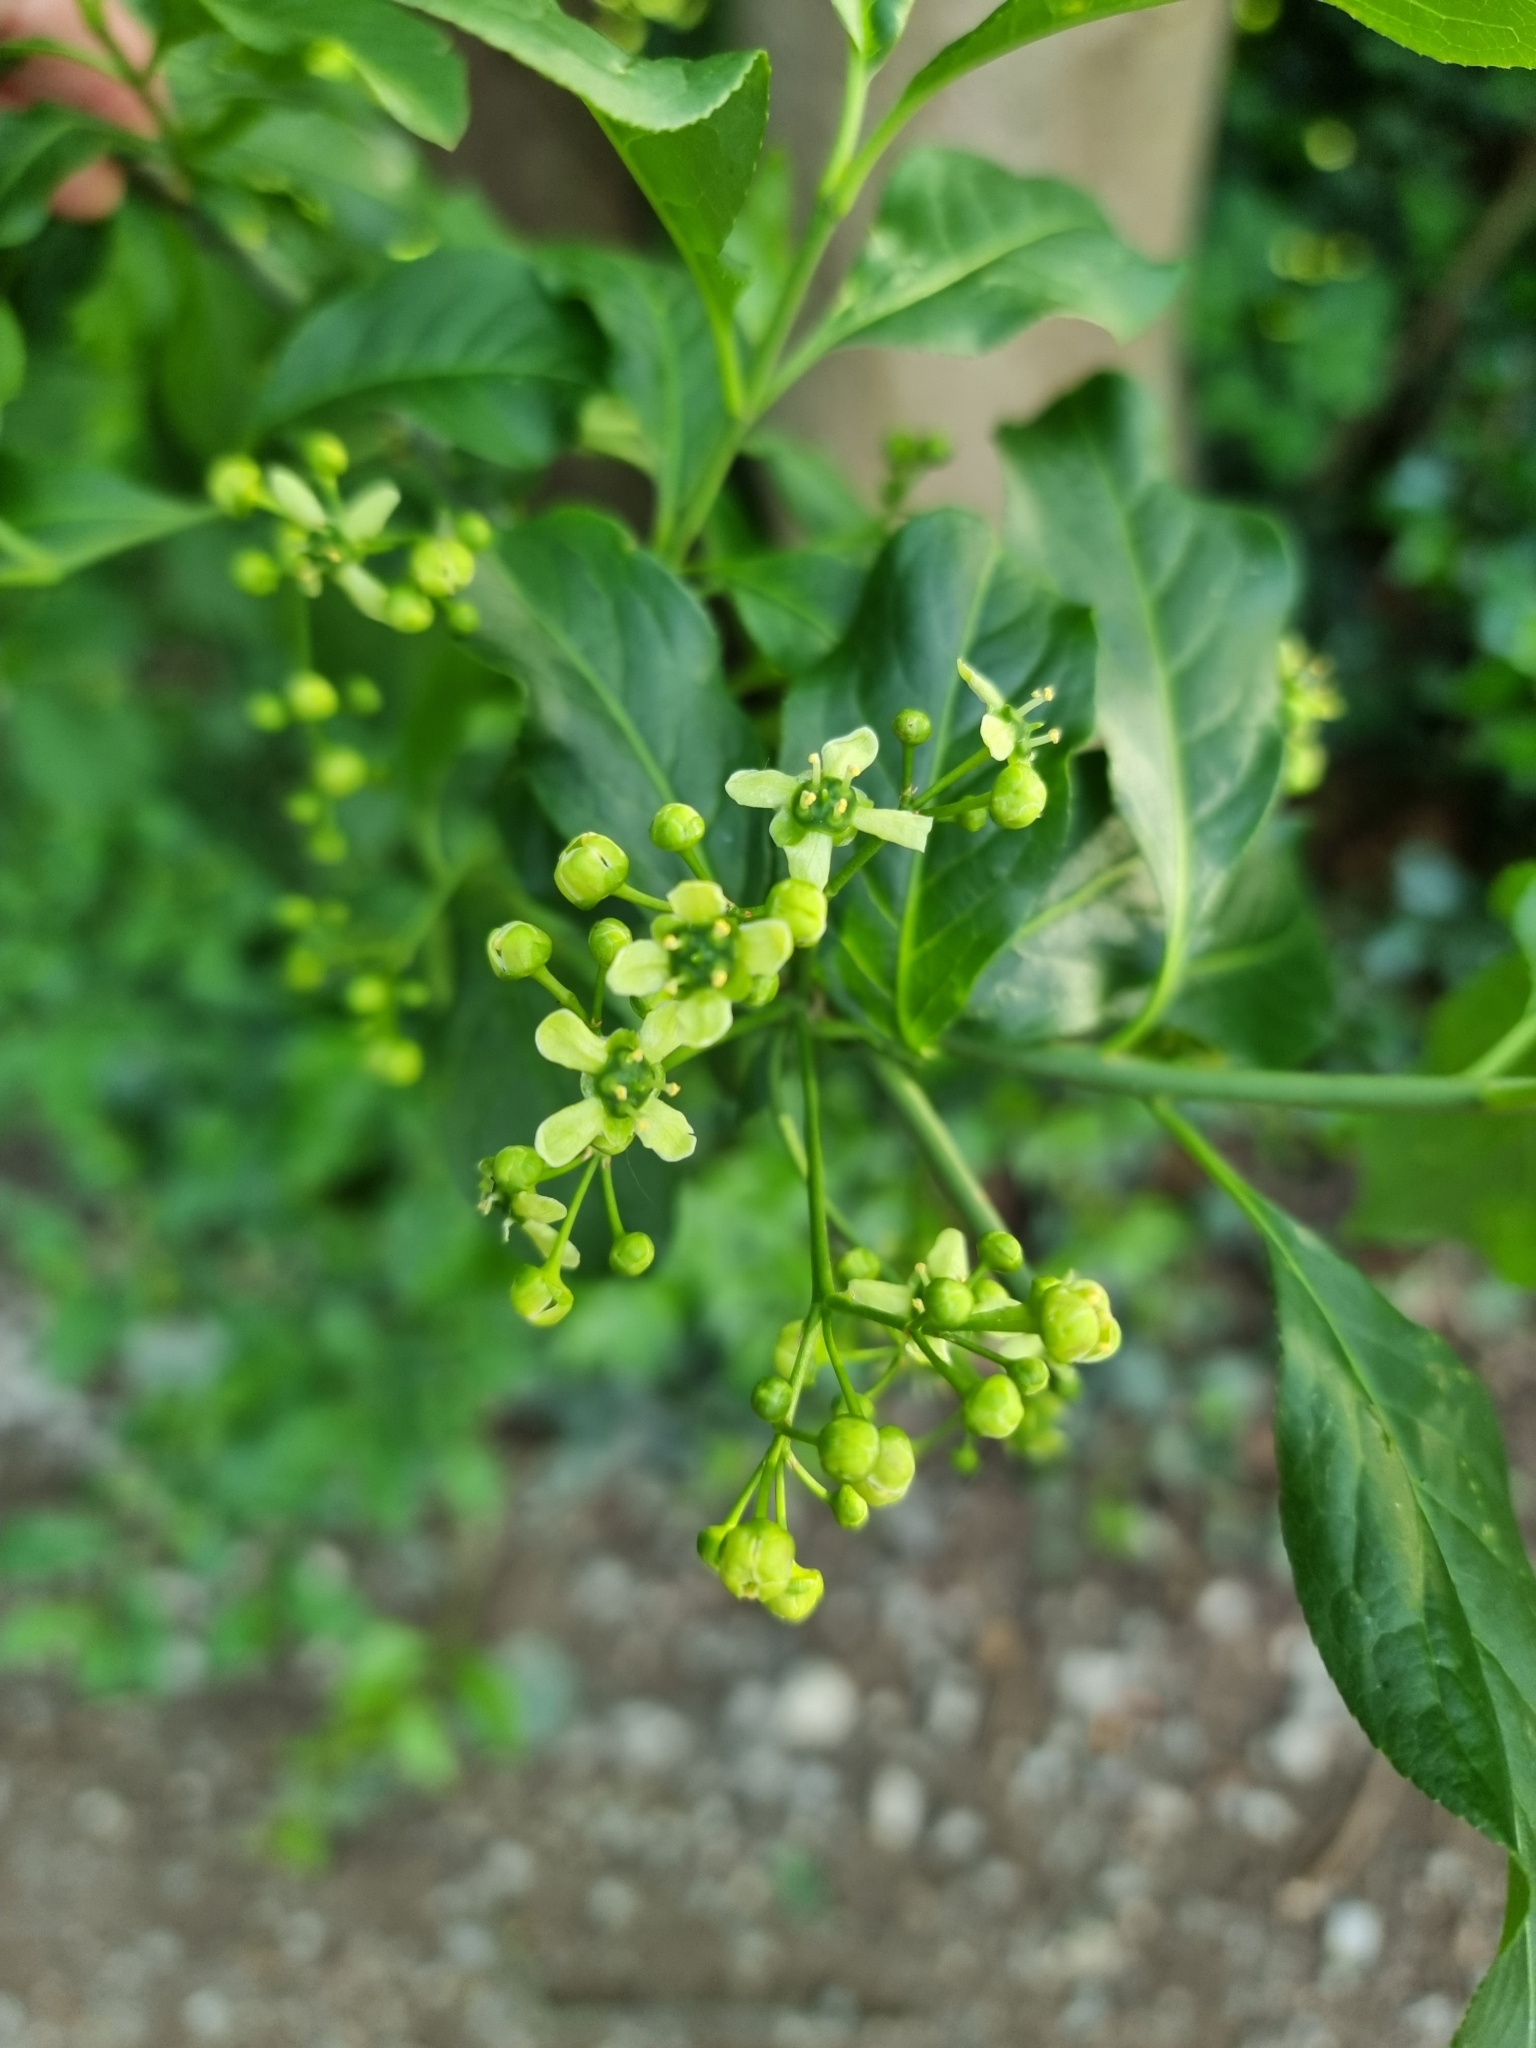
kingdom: Plantae
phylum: Tracheophyta
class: Magnoliopsida
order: Celastrales
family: Celastraceae
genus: Euonymus
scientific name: Euonymus europaeus
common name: Spindle
